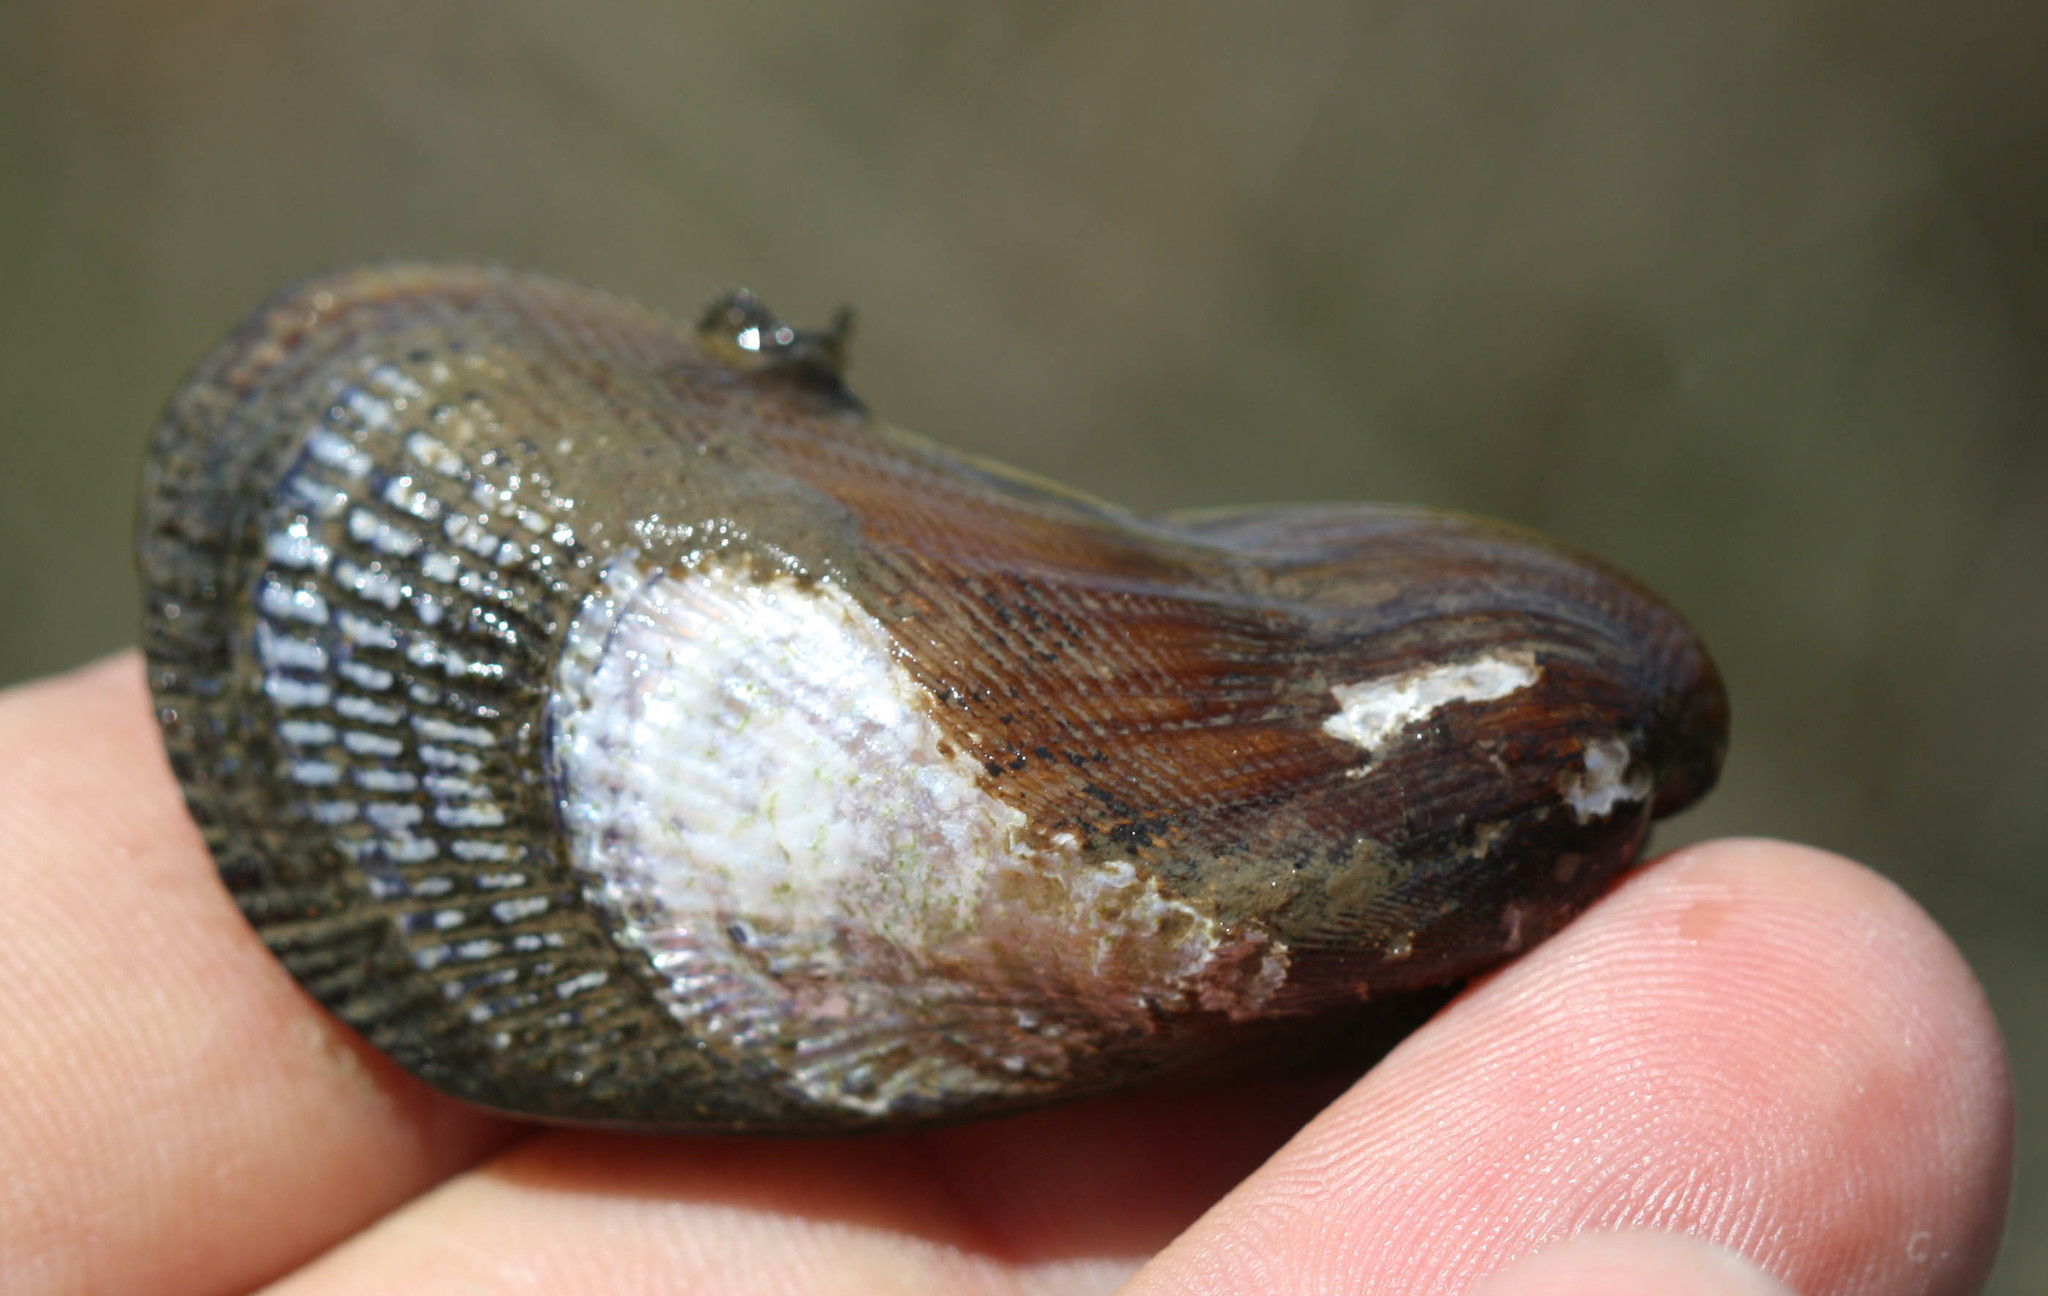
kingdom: Animalia
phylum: Mollusca
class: Bivalvia
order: Mytilida
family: Mytilidae
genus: Geukensia
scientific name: Geukensia demissa
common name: Ribbed mussel
